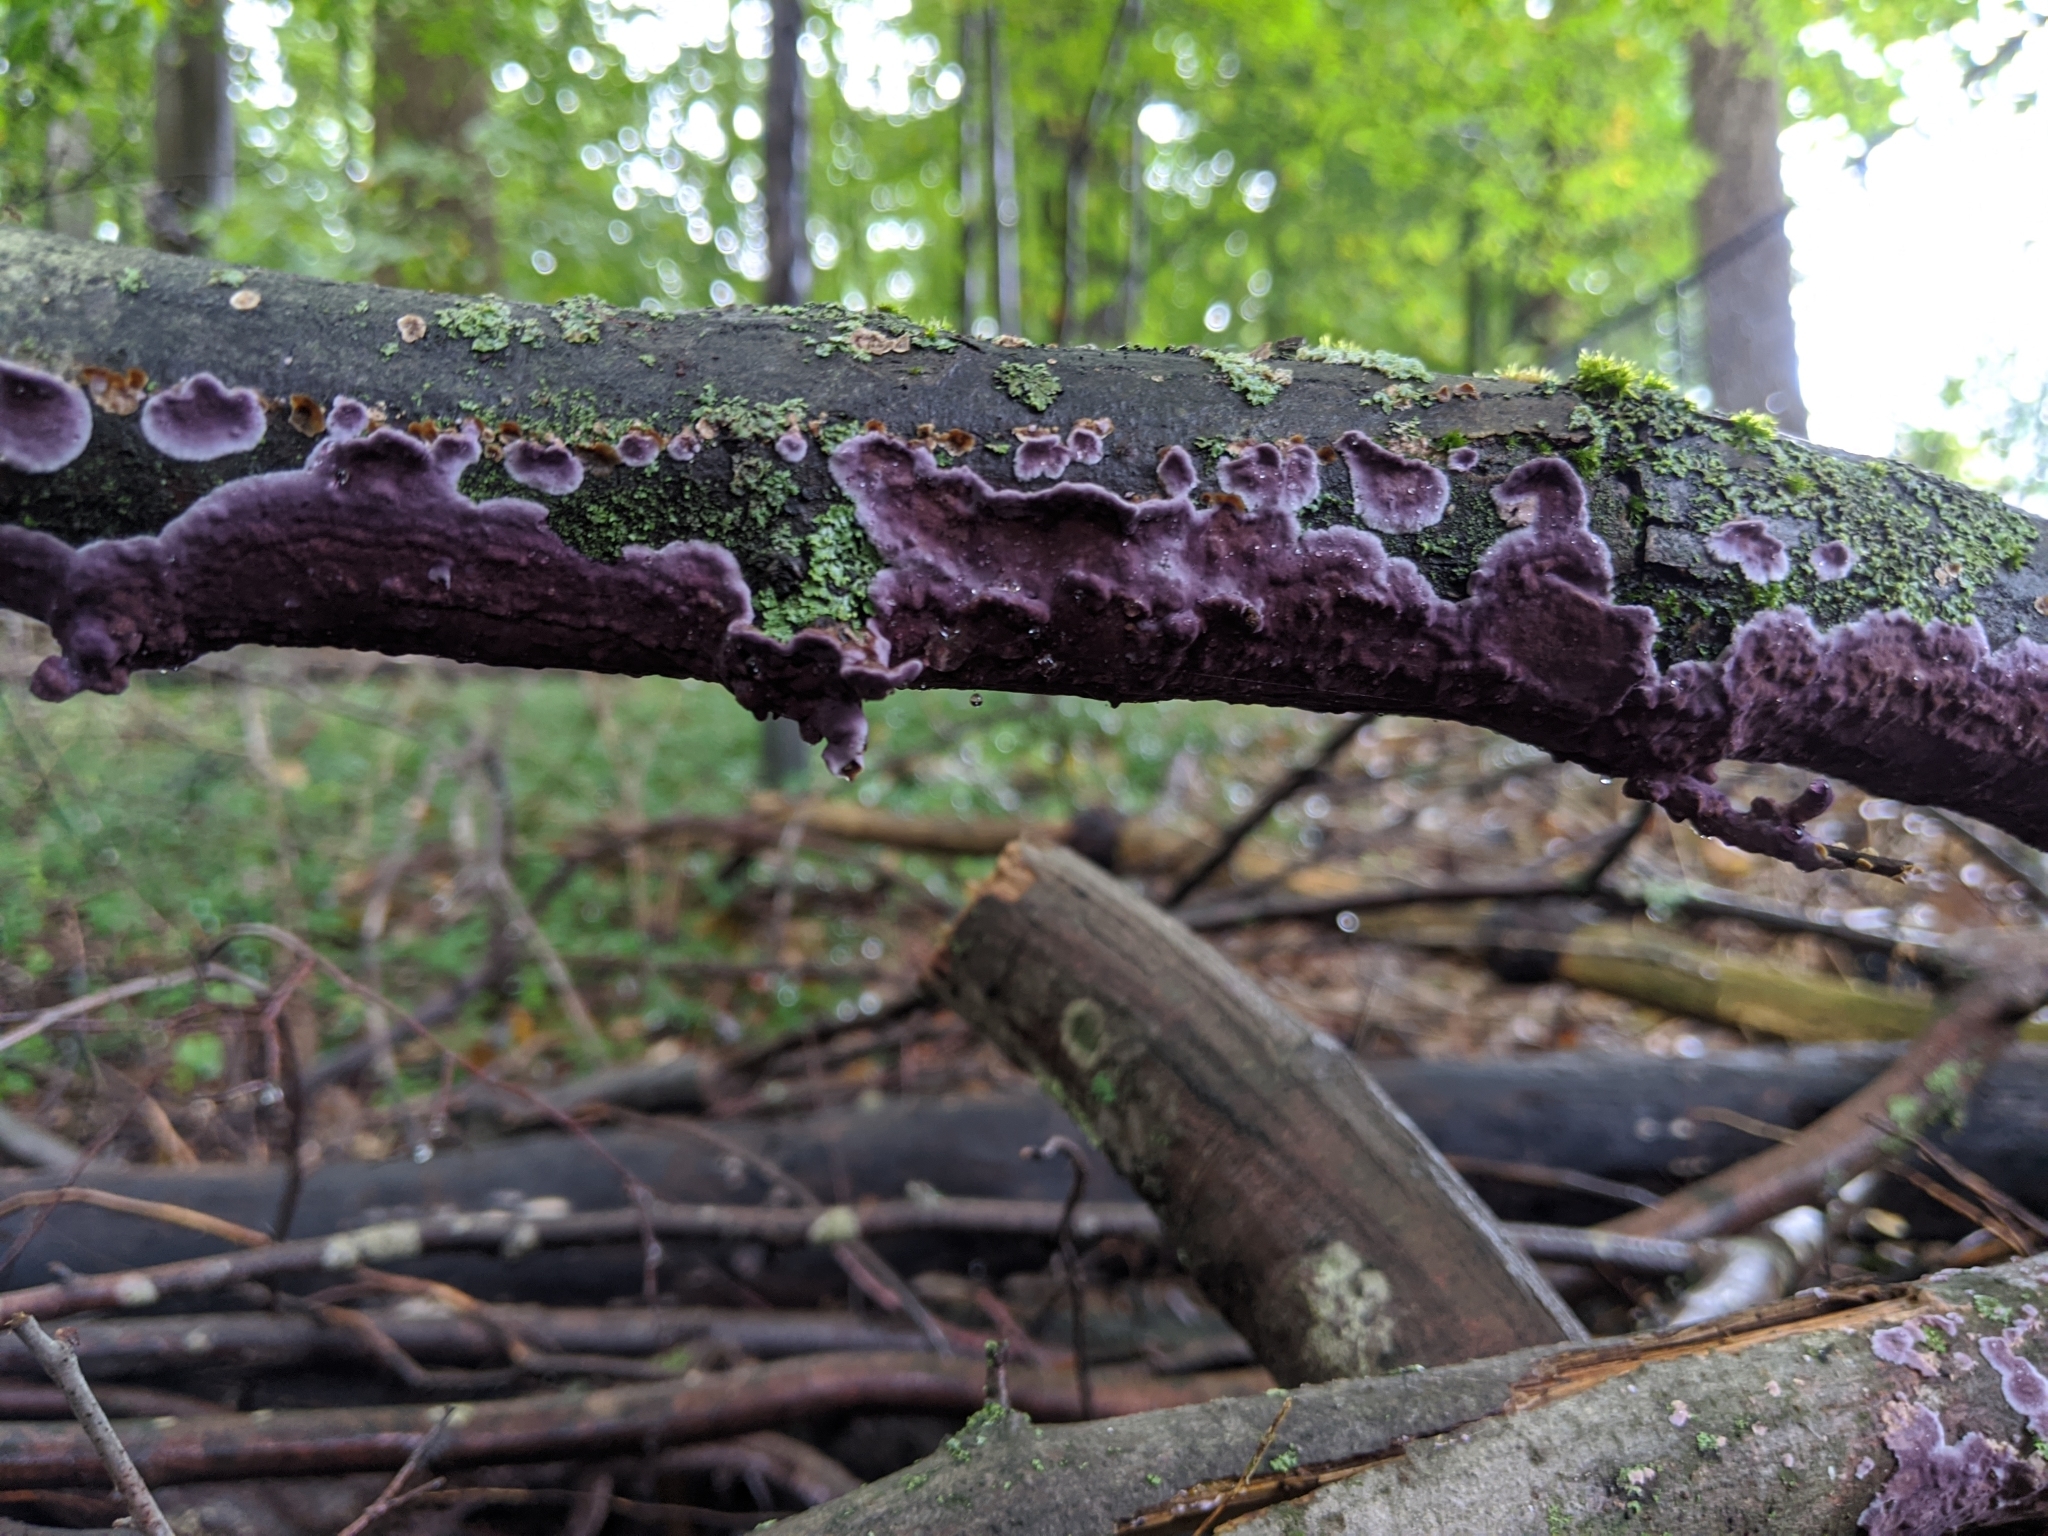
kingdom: Fungi
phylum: Basidiomycota
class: Agaricomycetes
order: Polyporales
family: Phanerochaetaceae
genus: Phlebiopsis
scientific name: Phlebiopsis crassa
